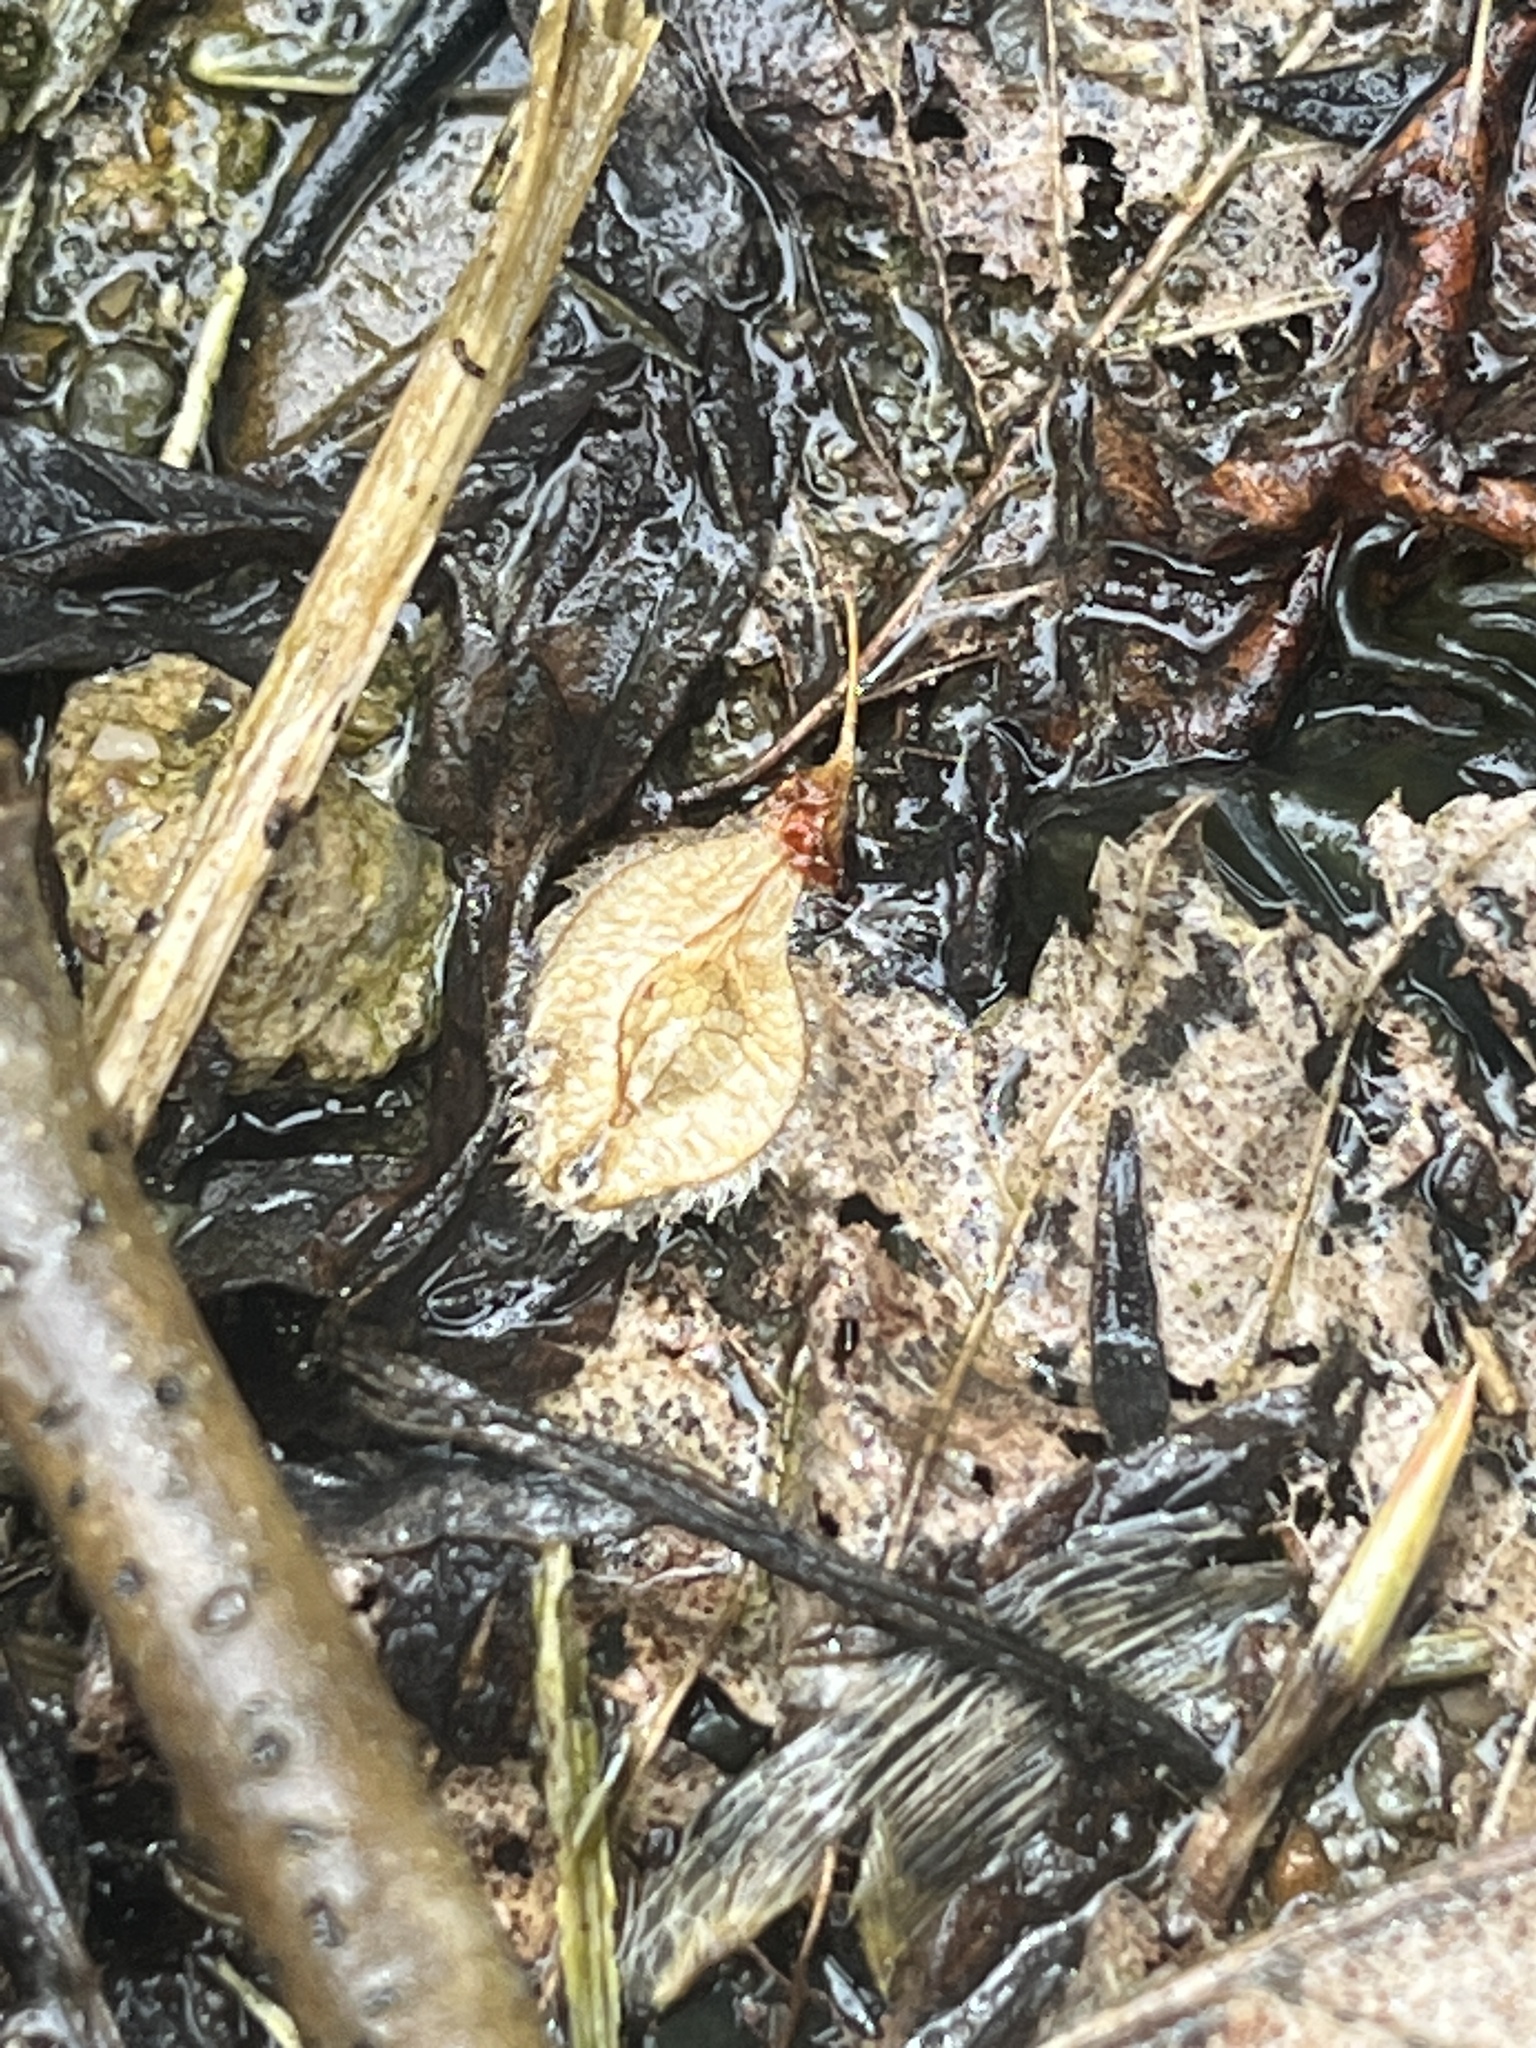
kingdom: Plantae
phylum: Tracheophyta
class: Magnoliopsida
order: Rosales
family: Ulmaceae
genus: Ulmus
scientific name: Ulmus americana
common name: American elm
